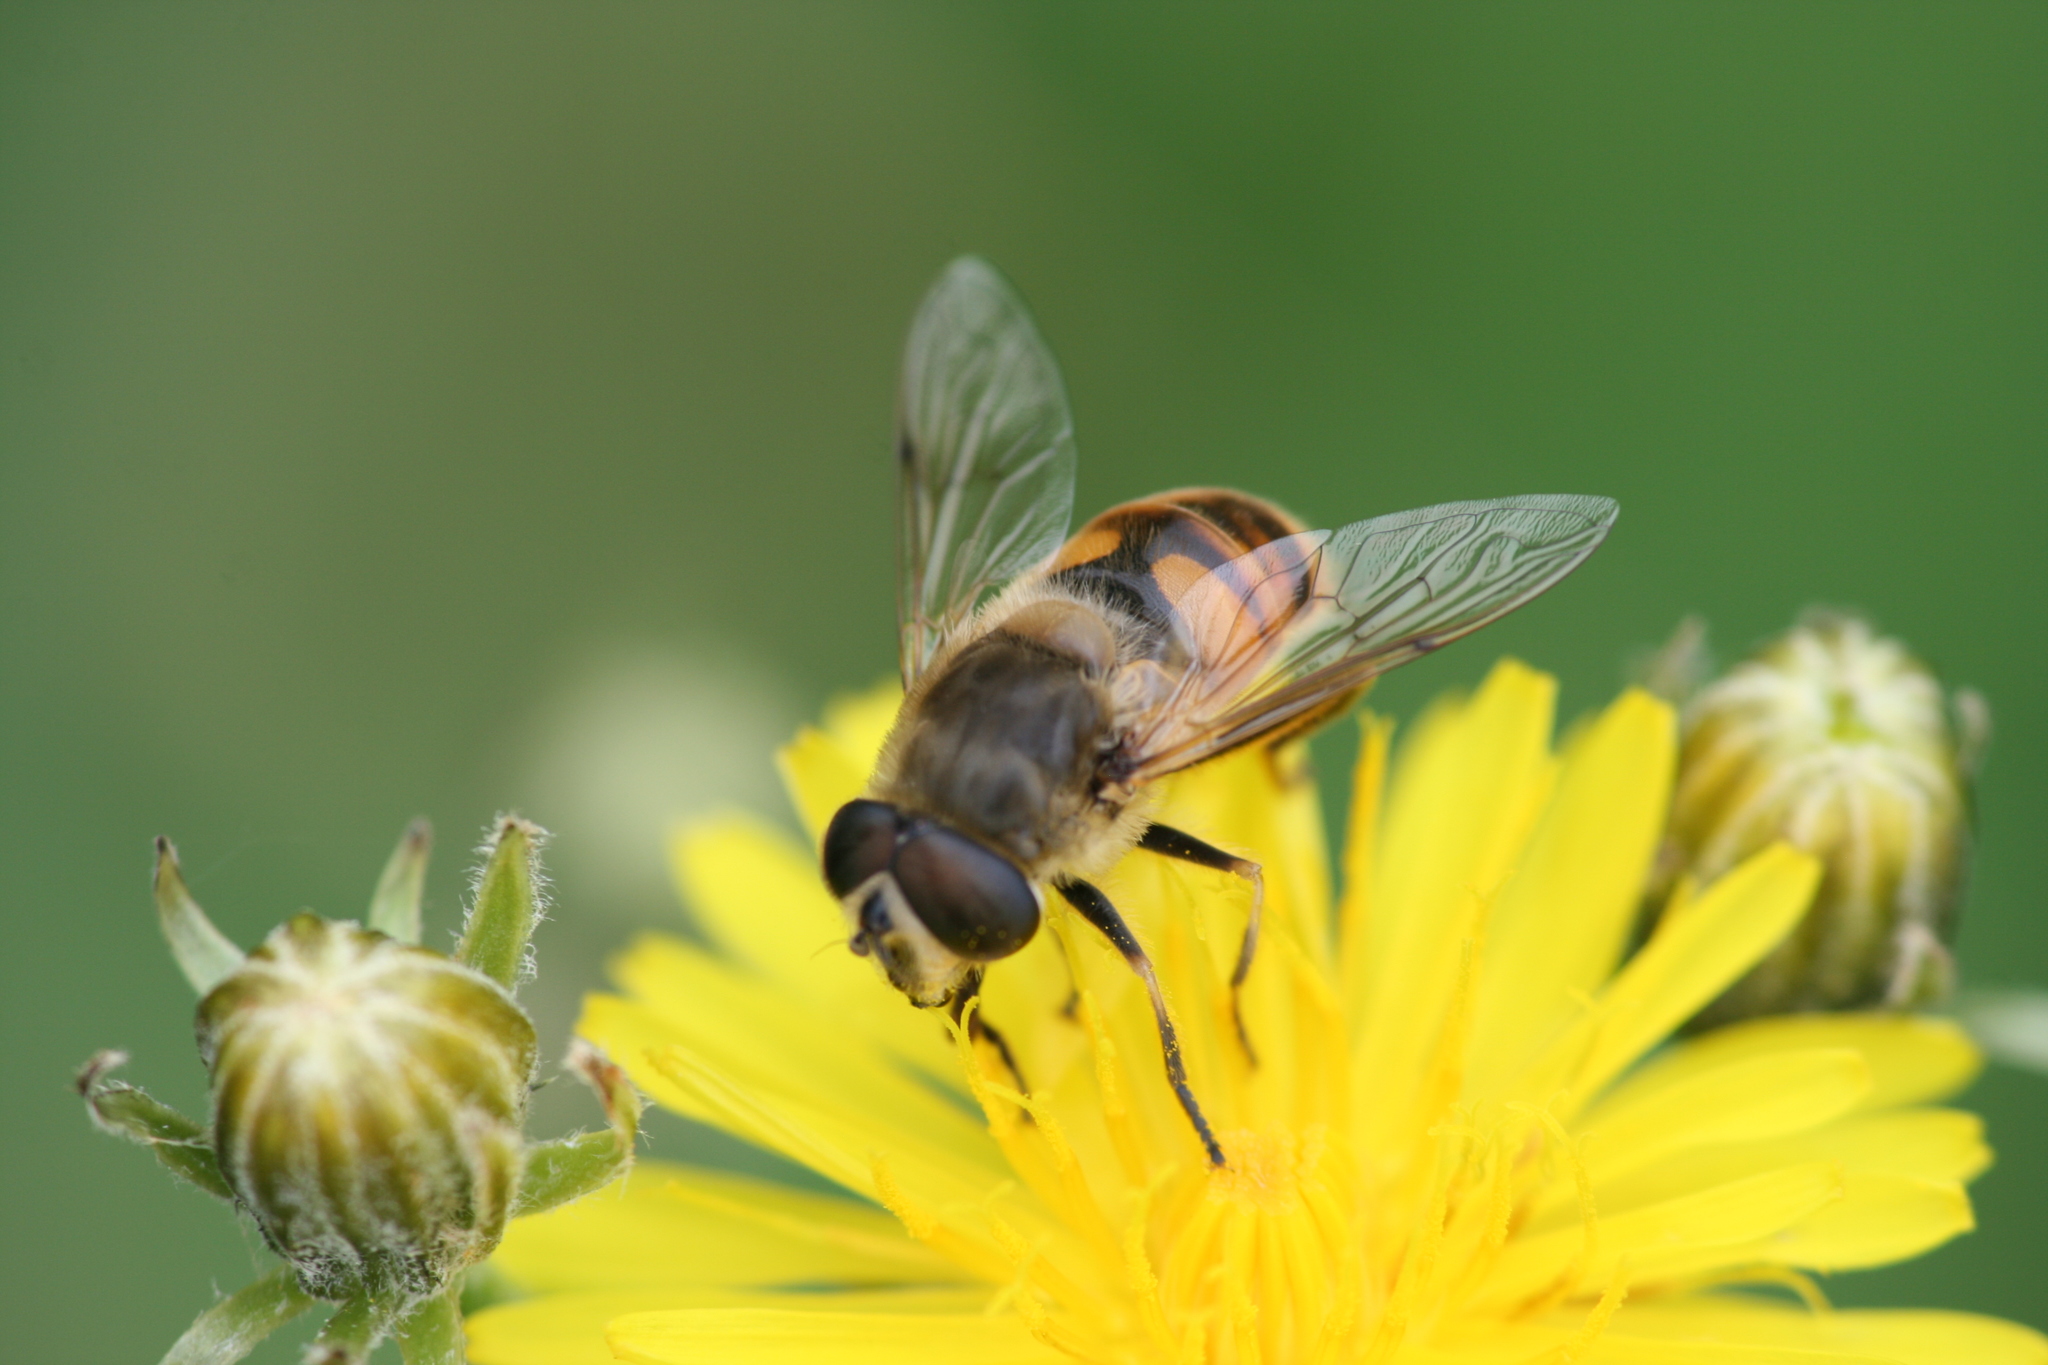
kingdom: Animalia
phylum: Arthropoda
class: Insecta
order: Diptera
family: Syrphidae
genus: Eristalis
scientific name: Eristalis tenax
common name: Drone fly
